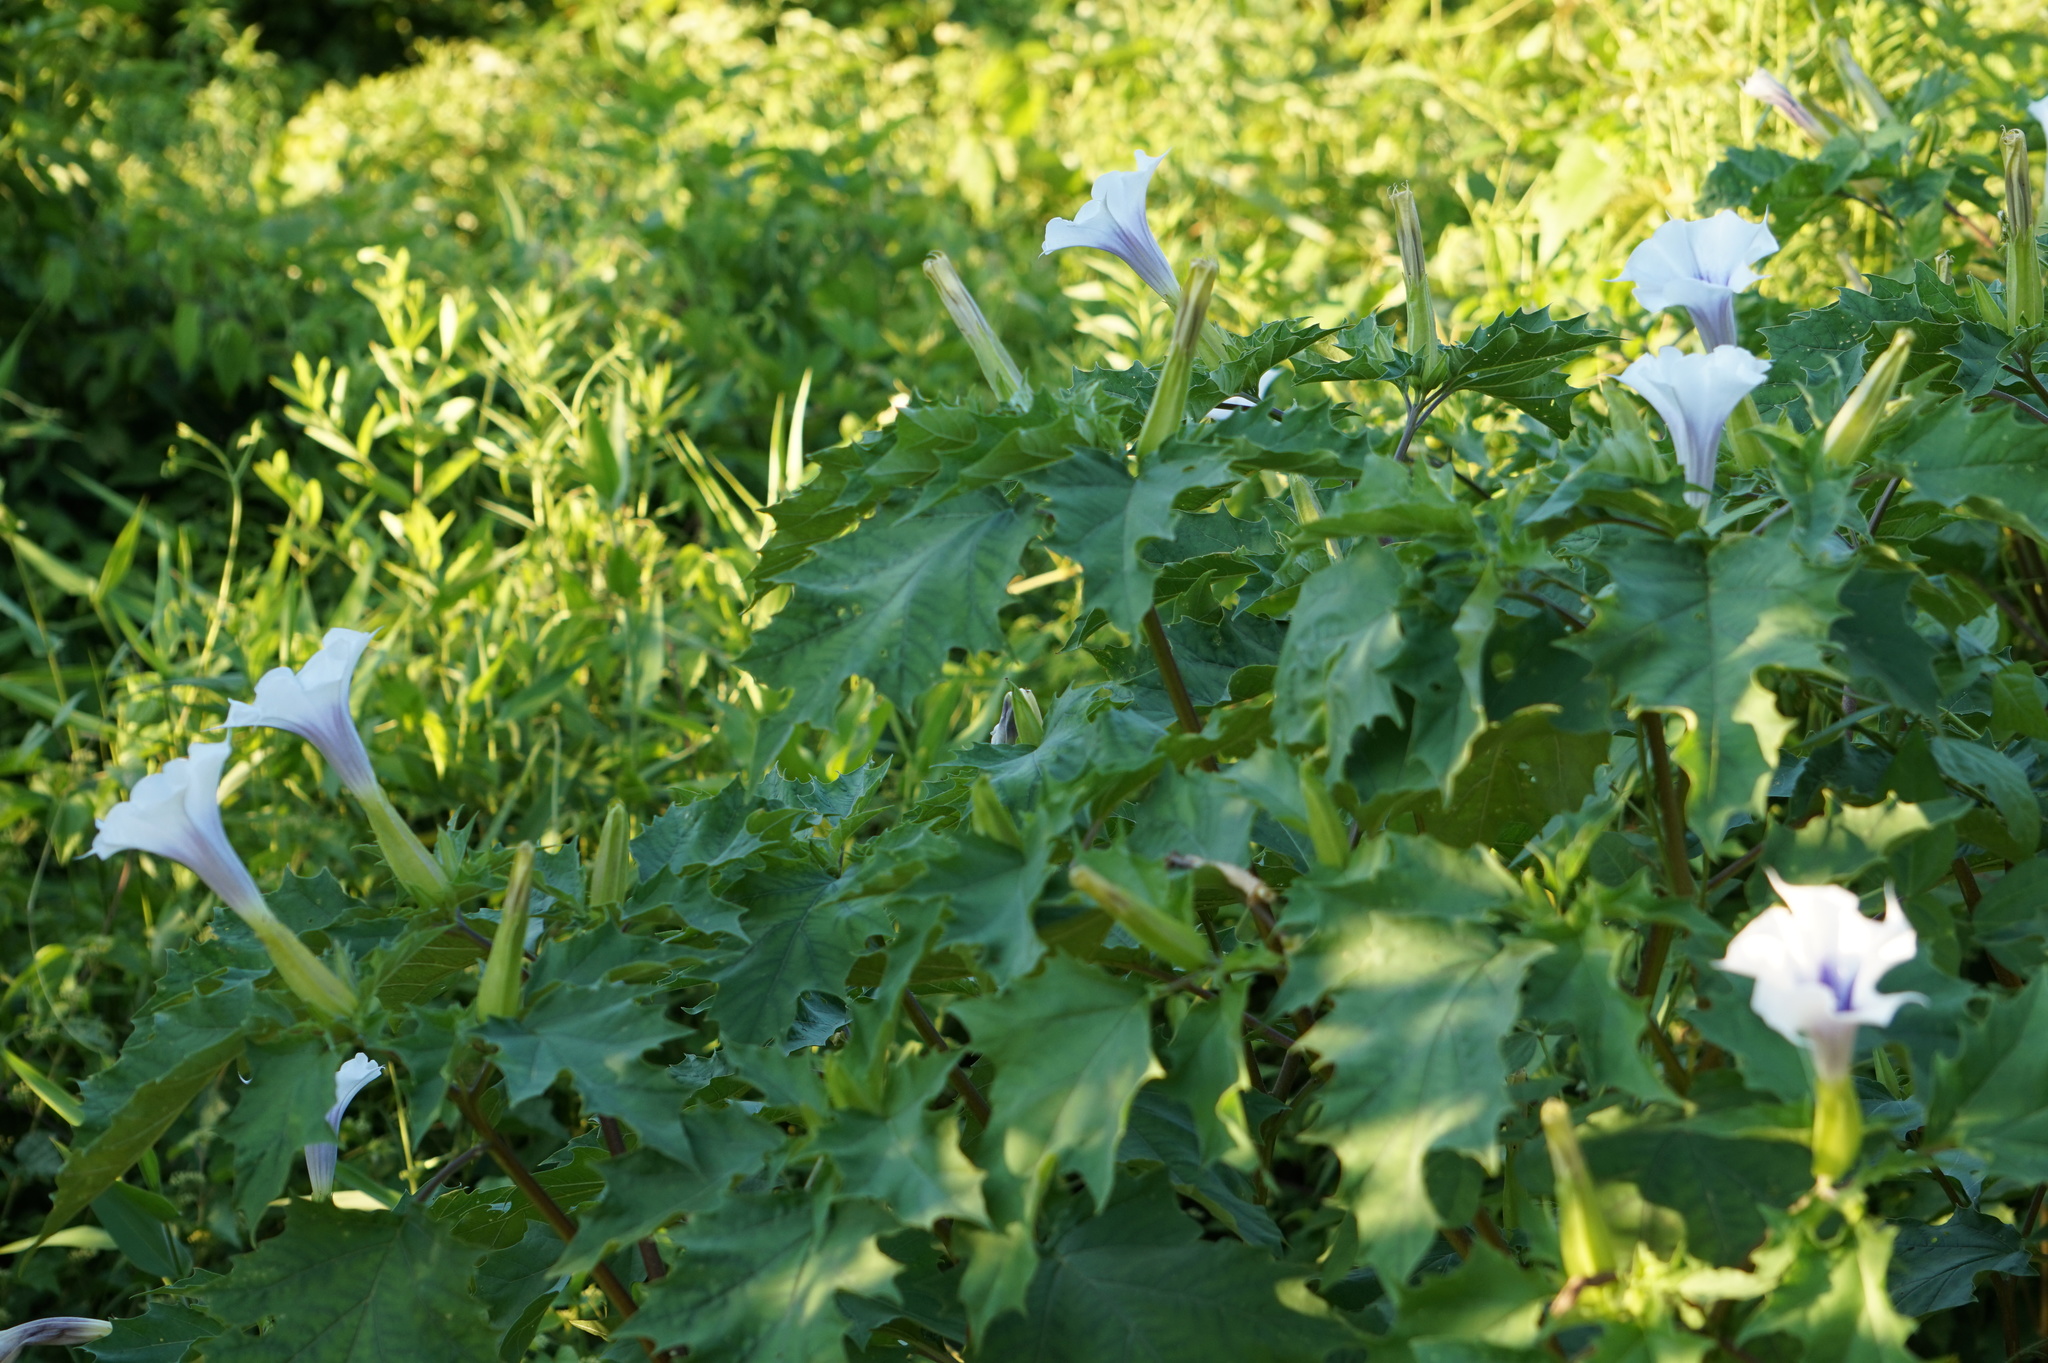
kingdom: Plantae
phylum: Tracheophyta
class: Magnoliopsida
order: Solanales
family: Solanaceae
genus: Datura
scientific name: Datura stramonium
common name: Thorn-apple
